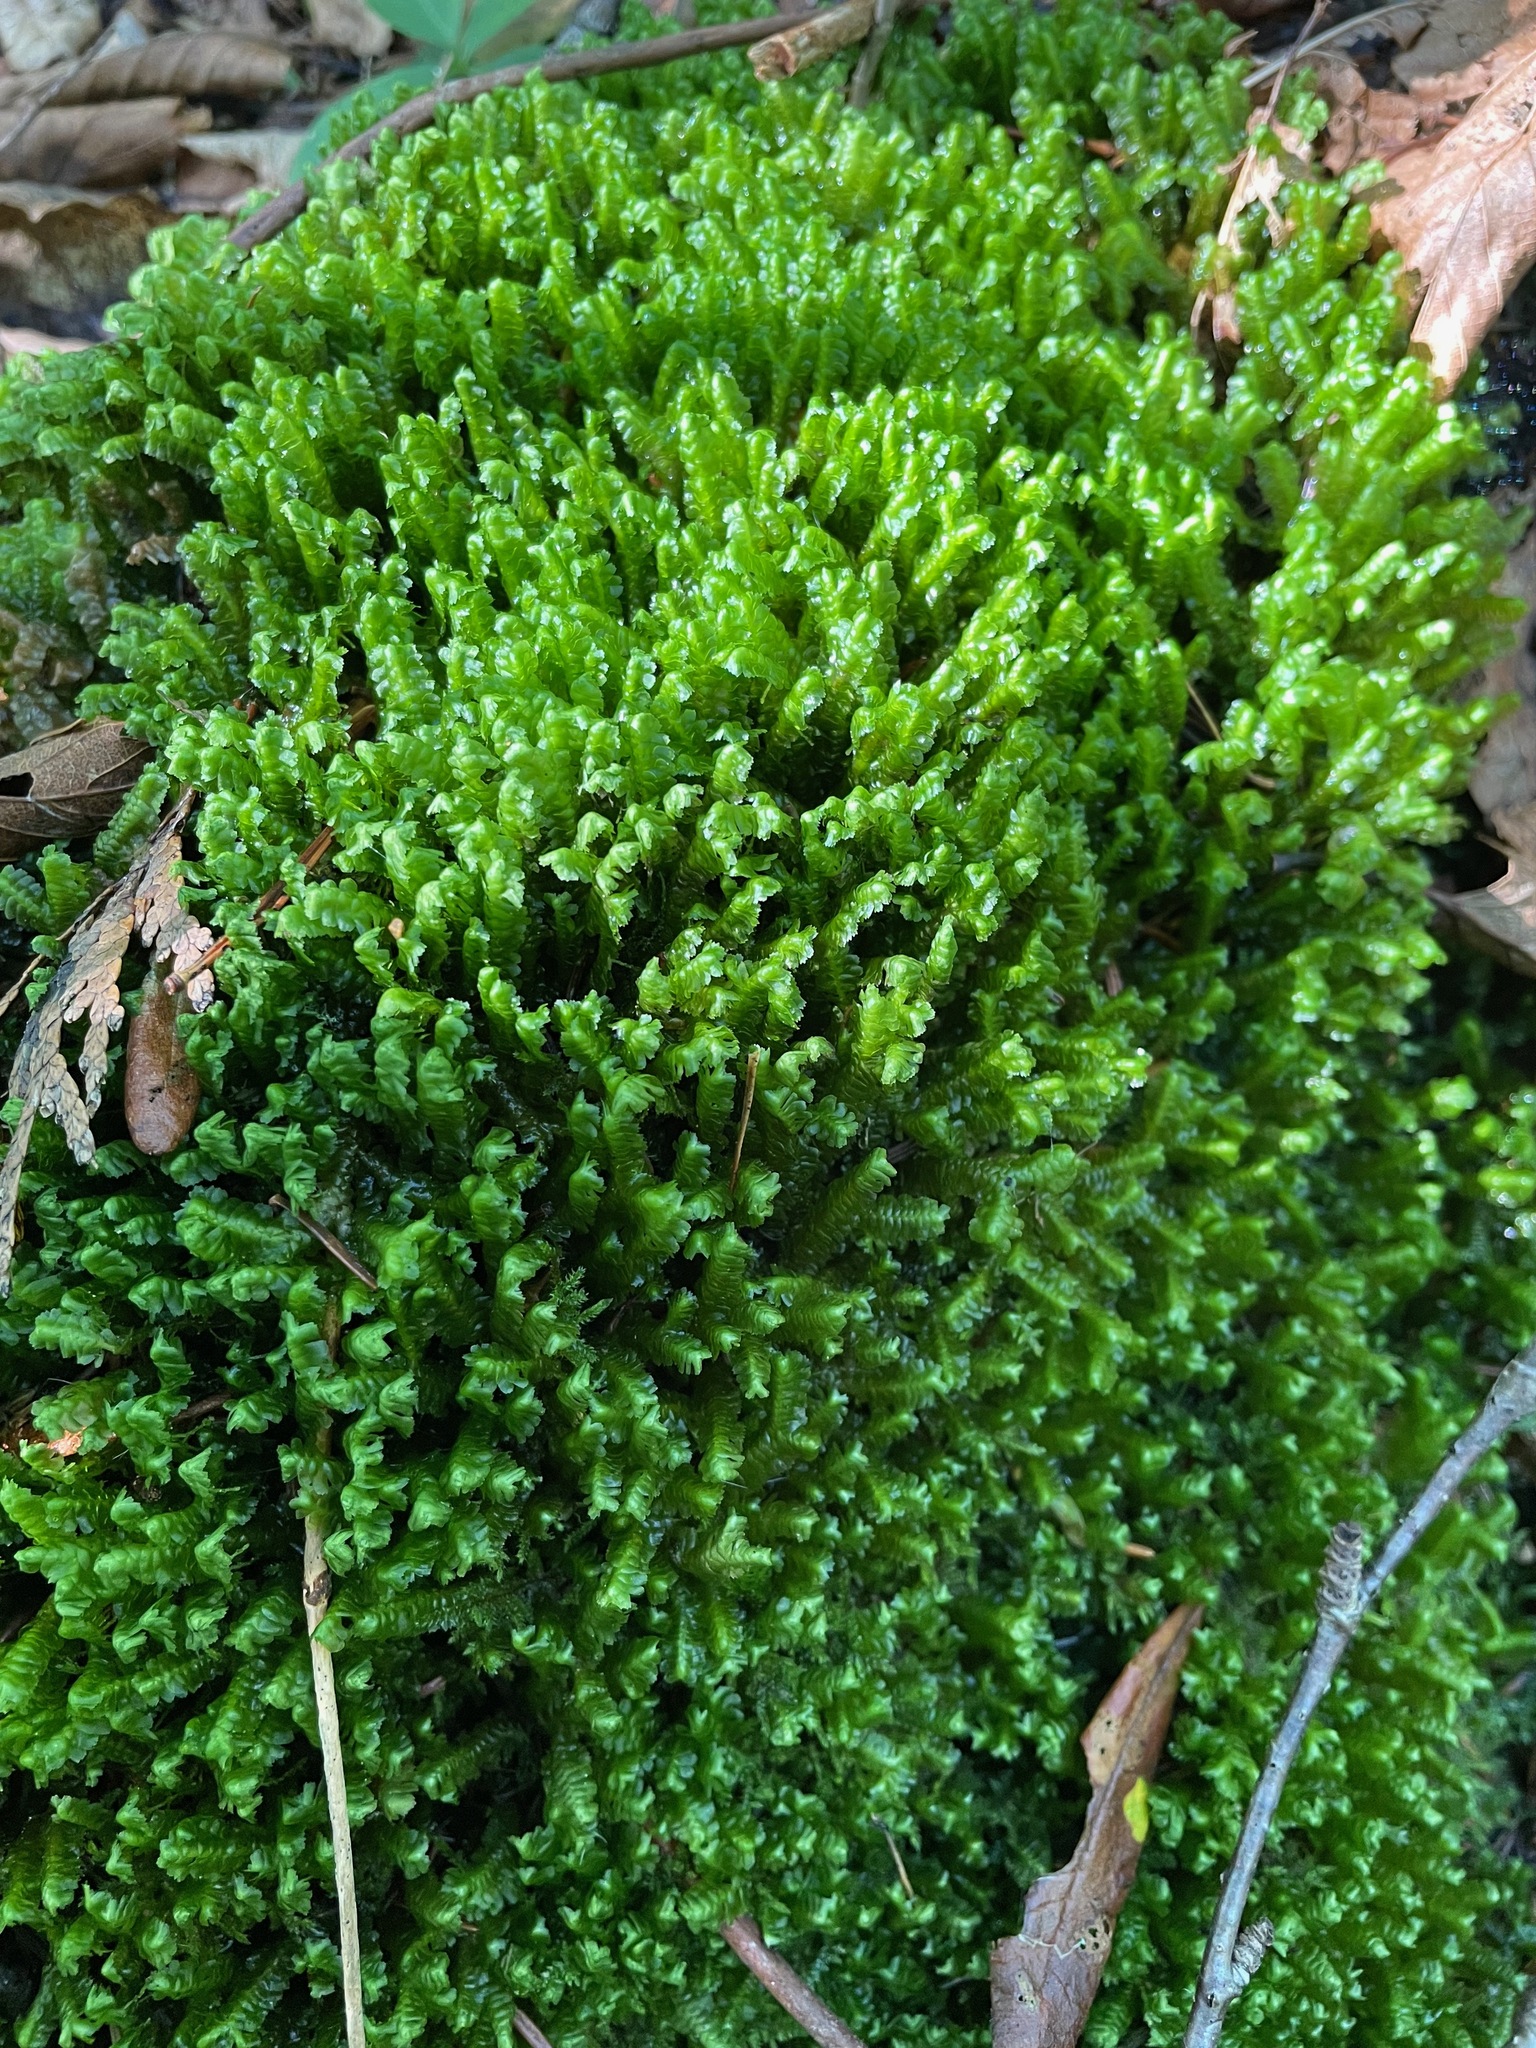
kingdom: Plantae
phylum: Marchantiophyta
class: Jungermanniopsida
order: Jungermanniales
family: Lepidoziaceae
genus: Bazzania
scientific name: Bazzania trilobata
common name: Three-lobed whipwort
